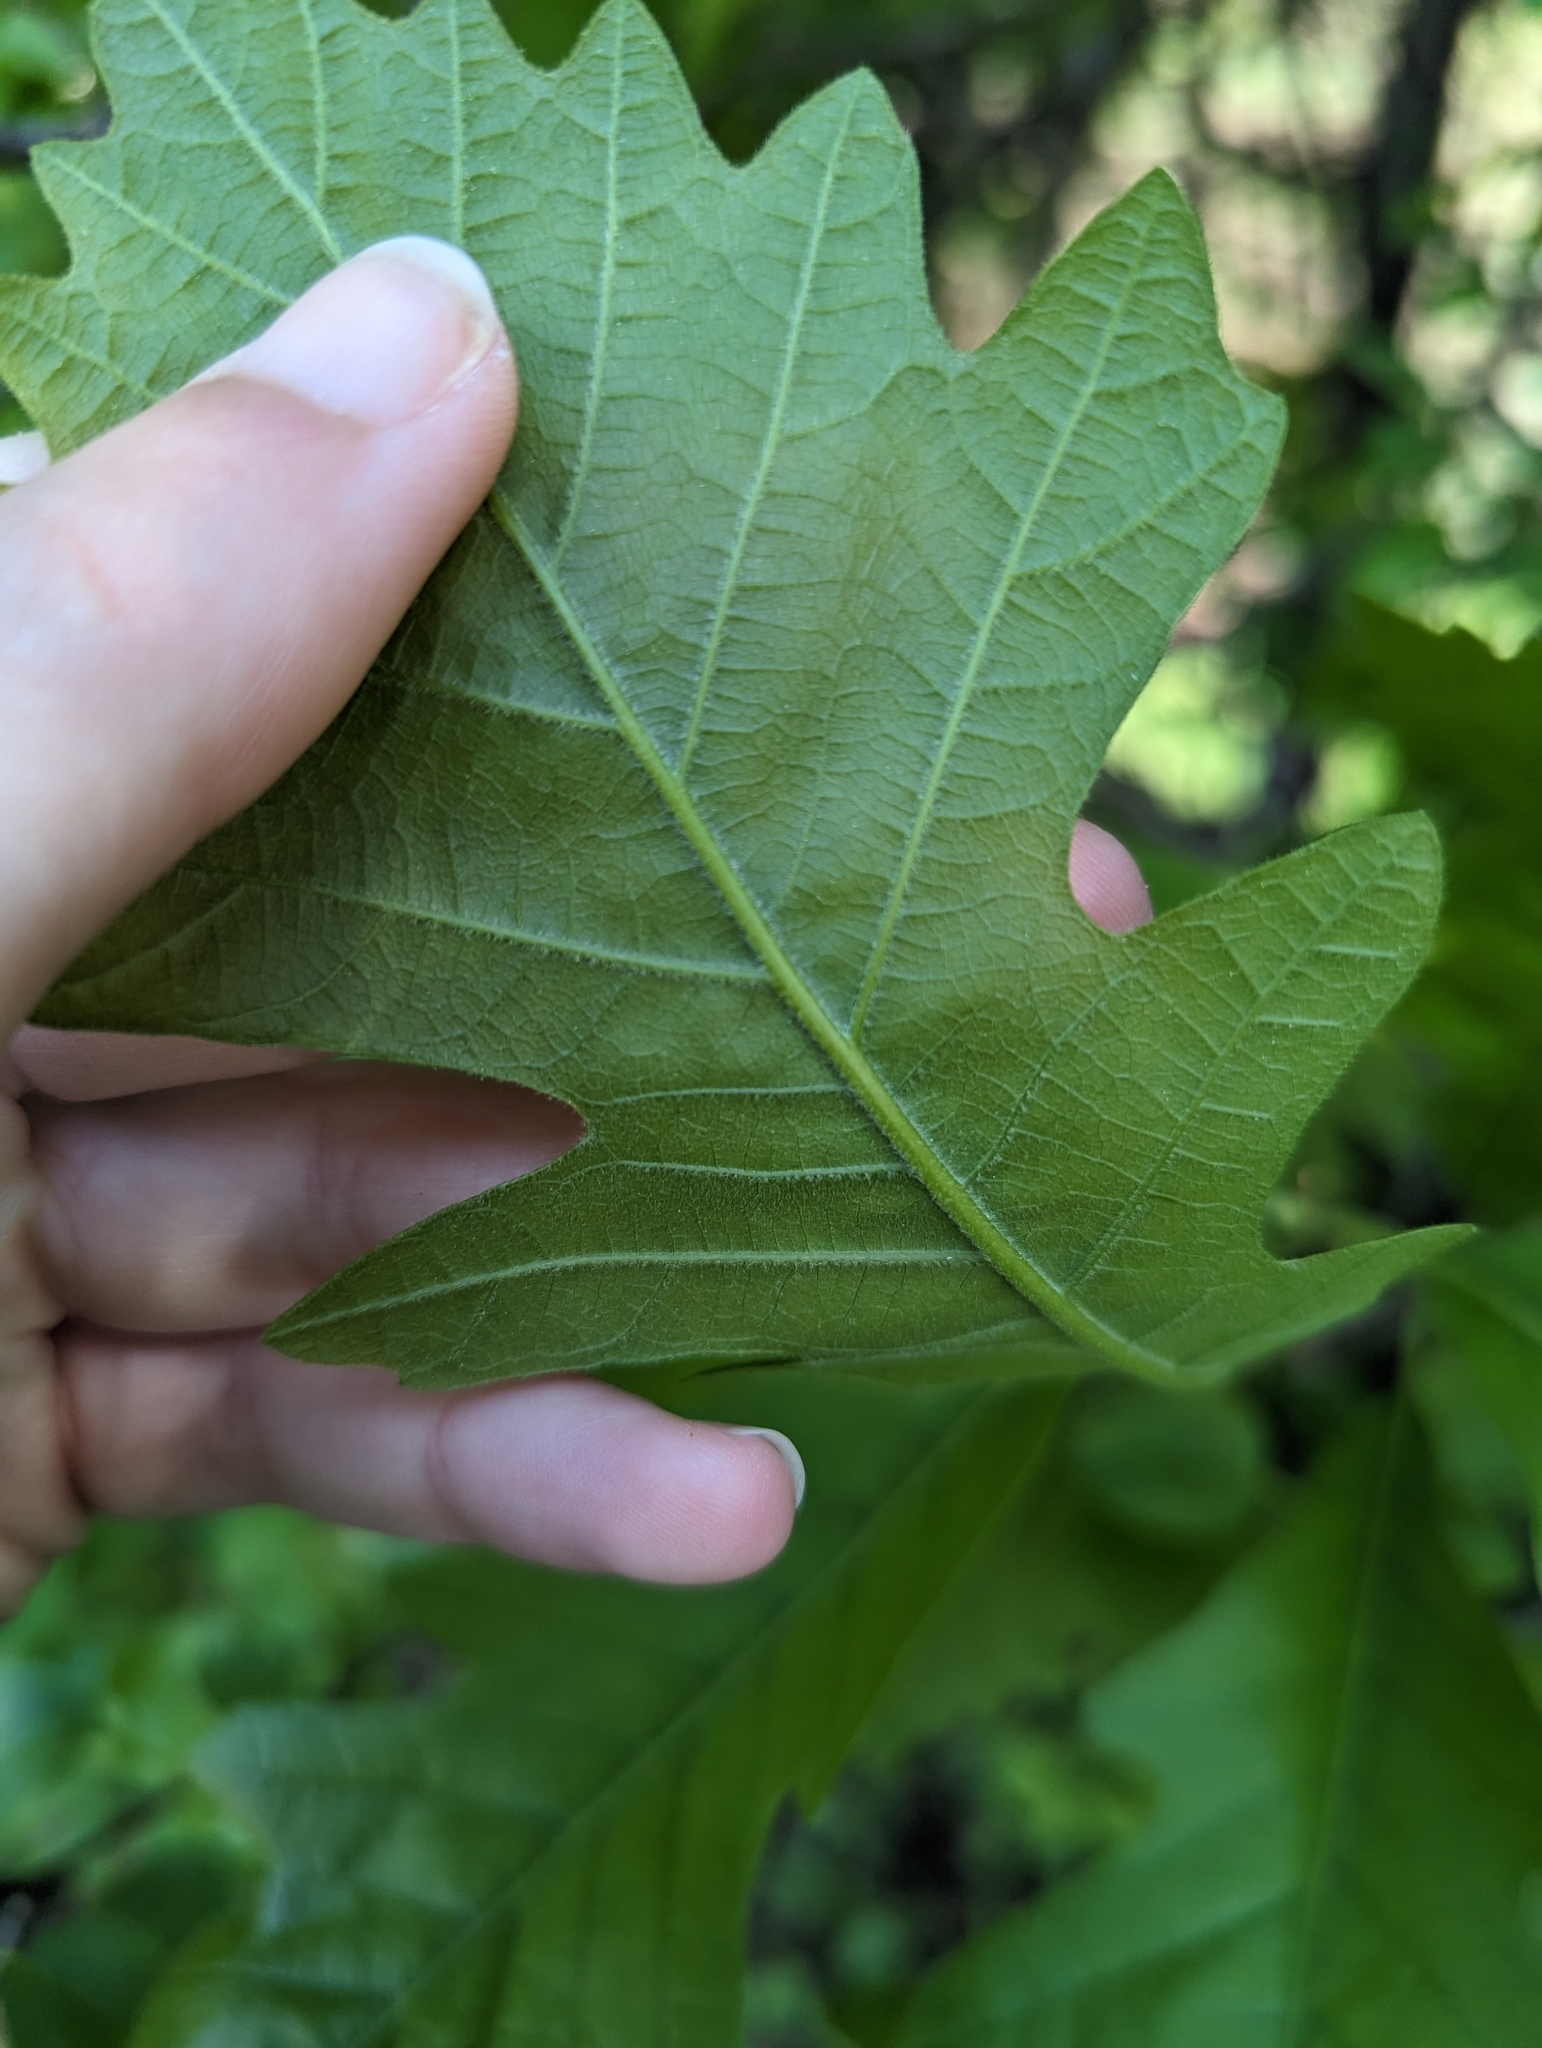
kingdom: Plantae
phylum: Tracheophyta
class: Magnoliopsida
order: Fagales
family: Fagaceae
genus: Quercus
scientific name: Quercus macrocarpa
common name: Bur oak
